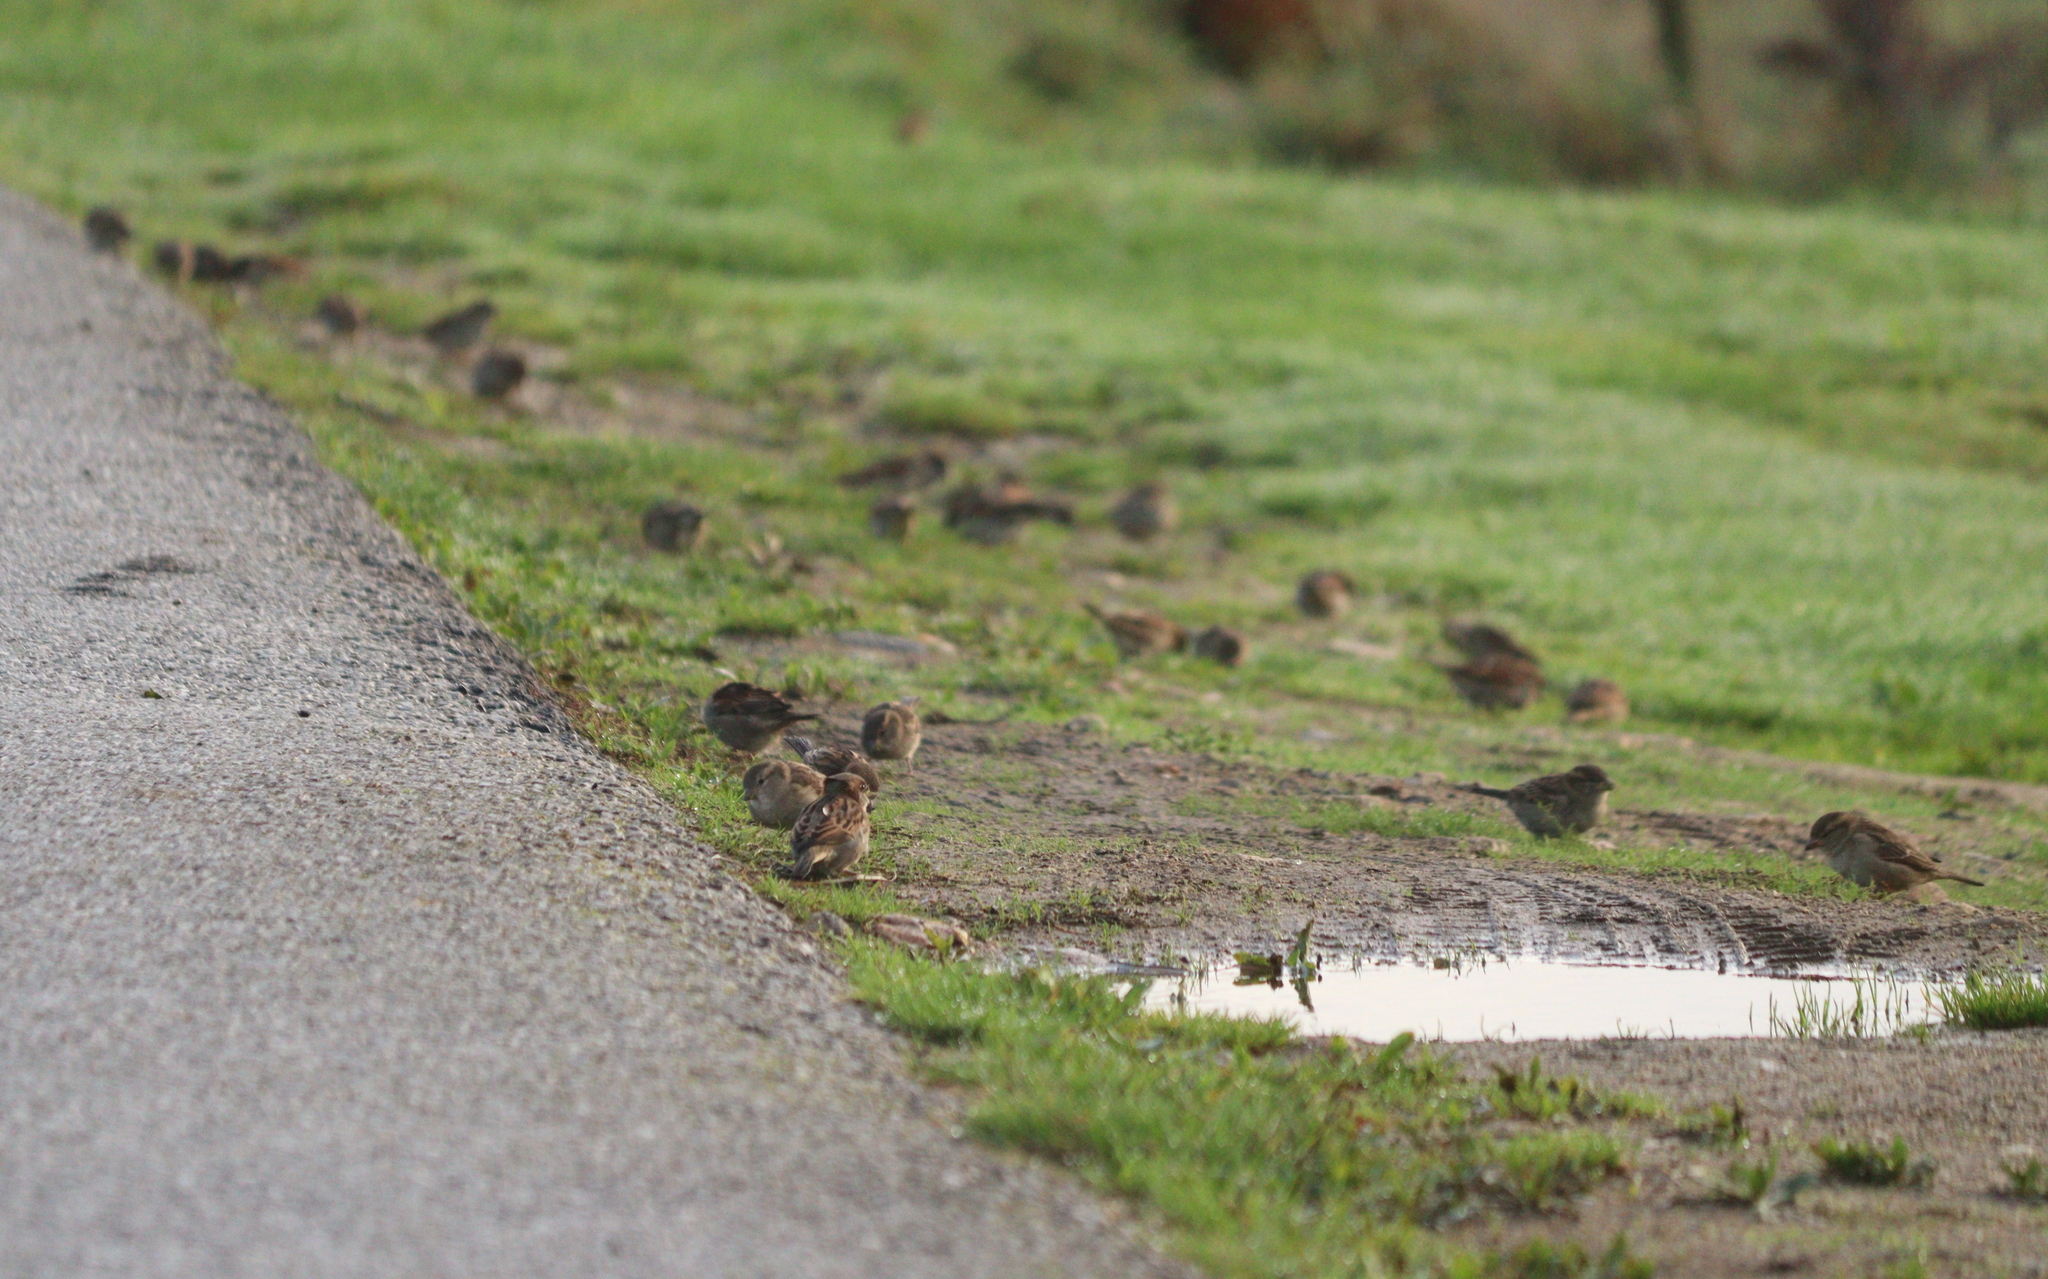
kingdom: Animalia
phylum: Chordata
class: Aves
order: Passeriformes
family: Passeridae
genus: Passer
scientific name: Passer domesticus
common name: House sparrow
